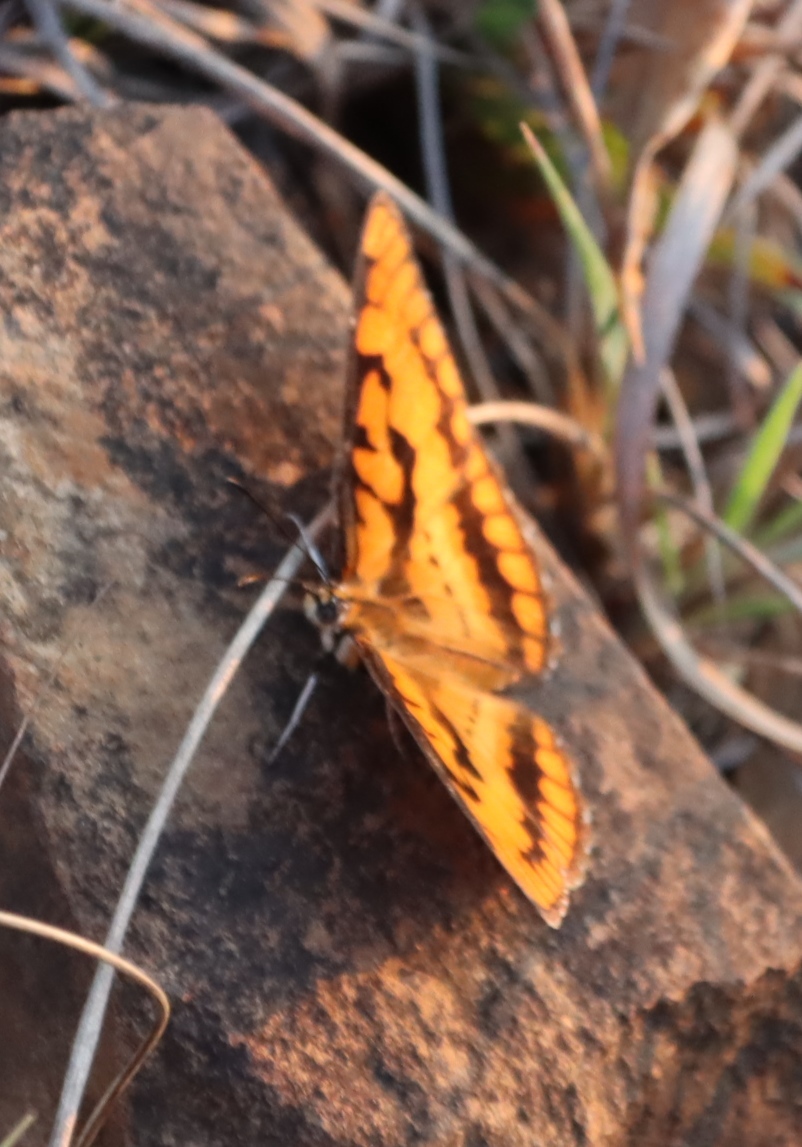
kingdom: Animalia
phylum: Arthropoda
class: Insecta
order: Lepidoptera
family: Nymphalidae
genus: Byblia
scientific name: Byblia ilithyia
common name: Spotted joker
